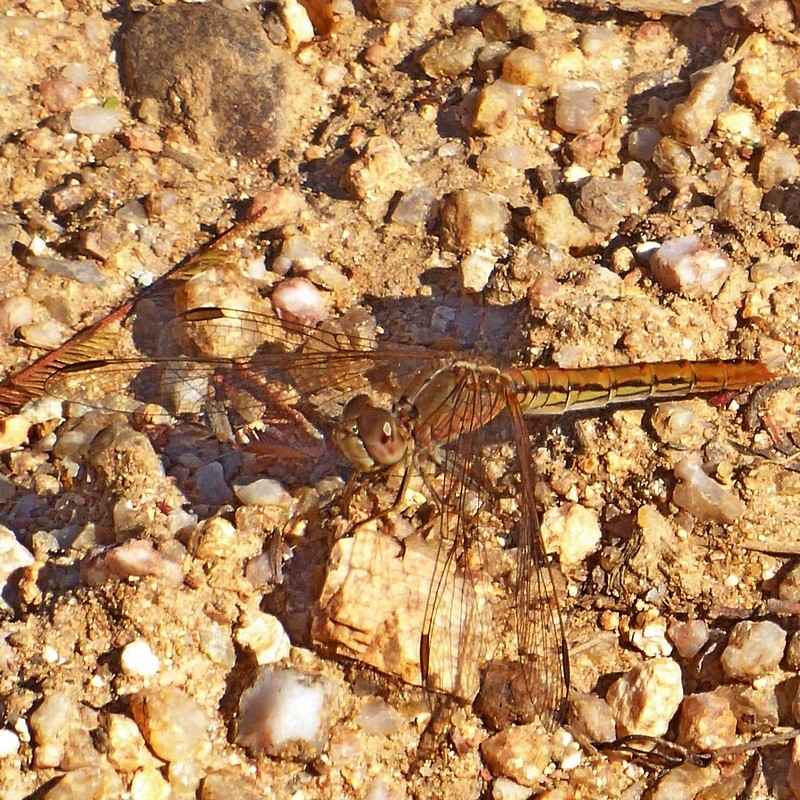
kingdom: Animalia
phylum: Arthropoda
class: Insecta
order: Odonata
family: Libellulidae
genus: Diplacodes
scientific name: Diplacodes haematodes
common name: Scarlet percher
